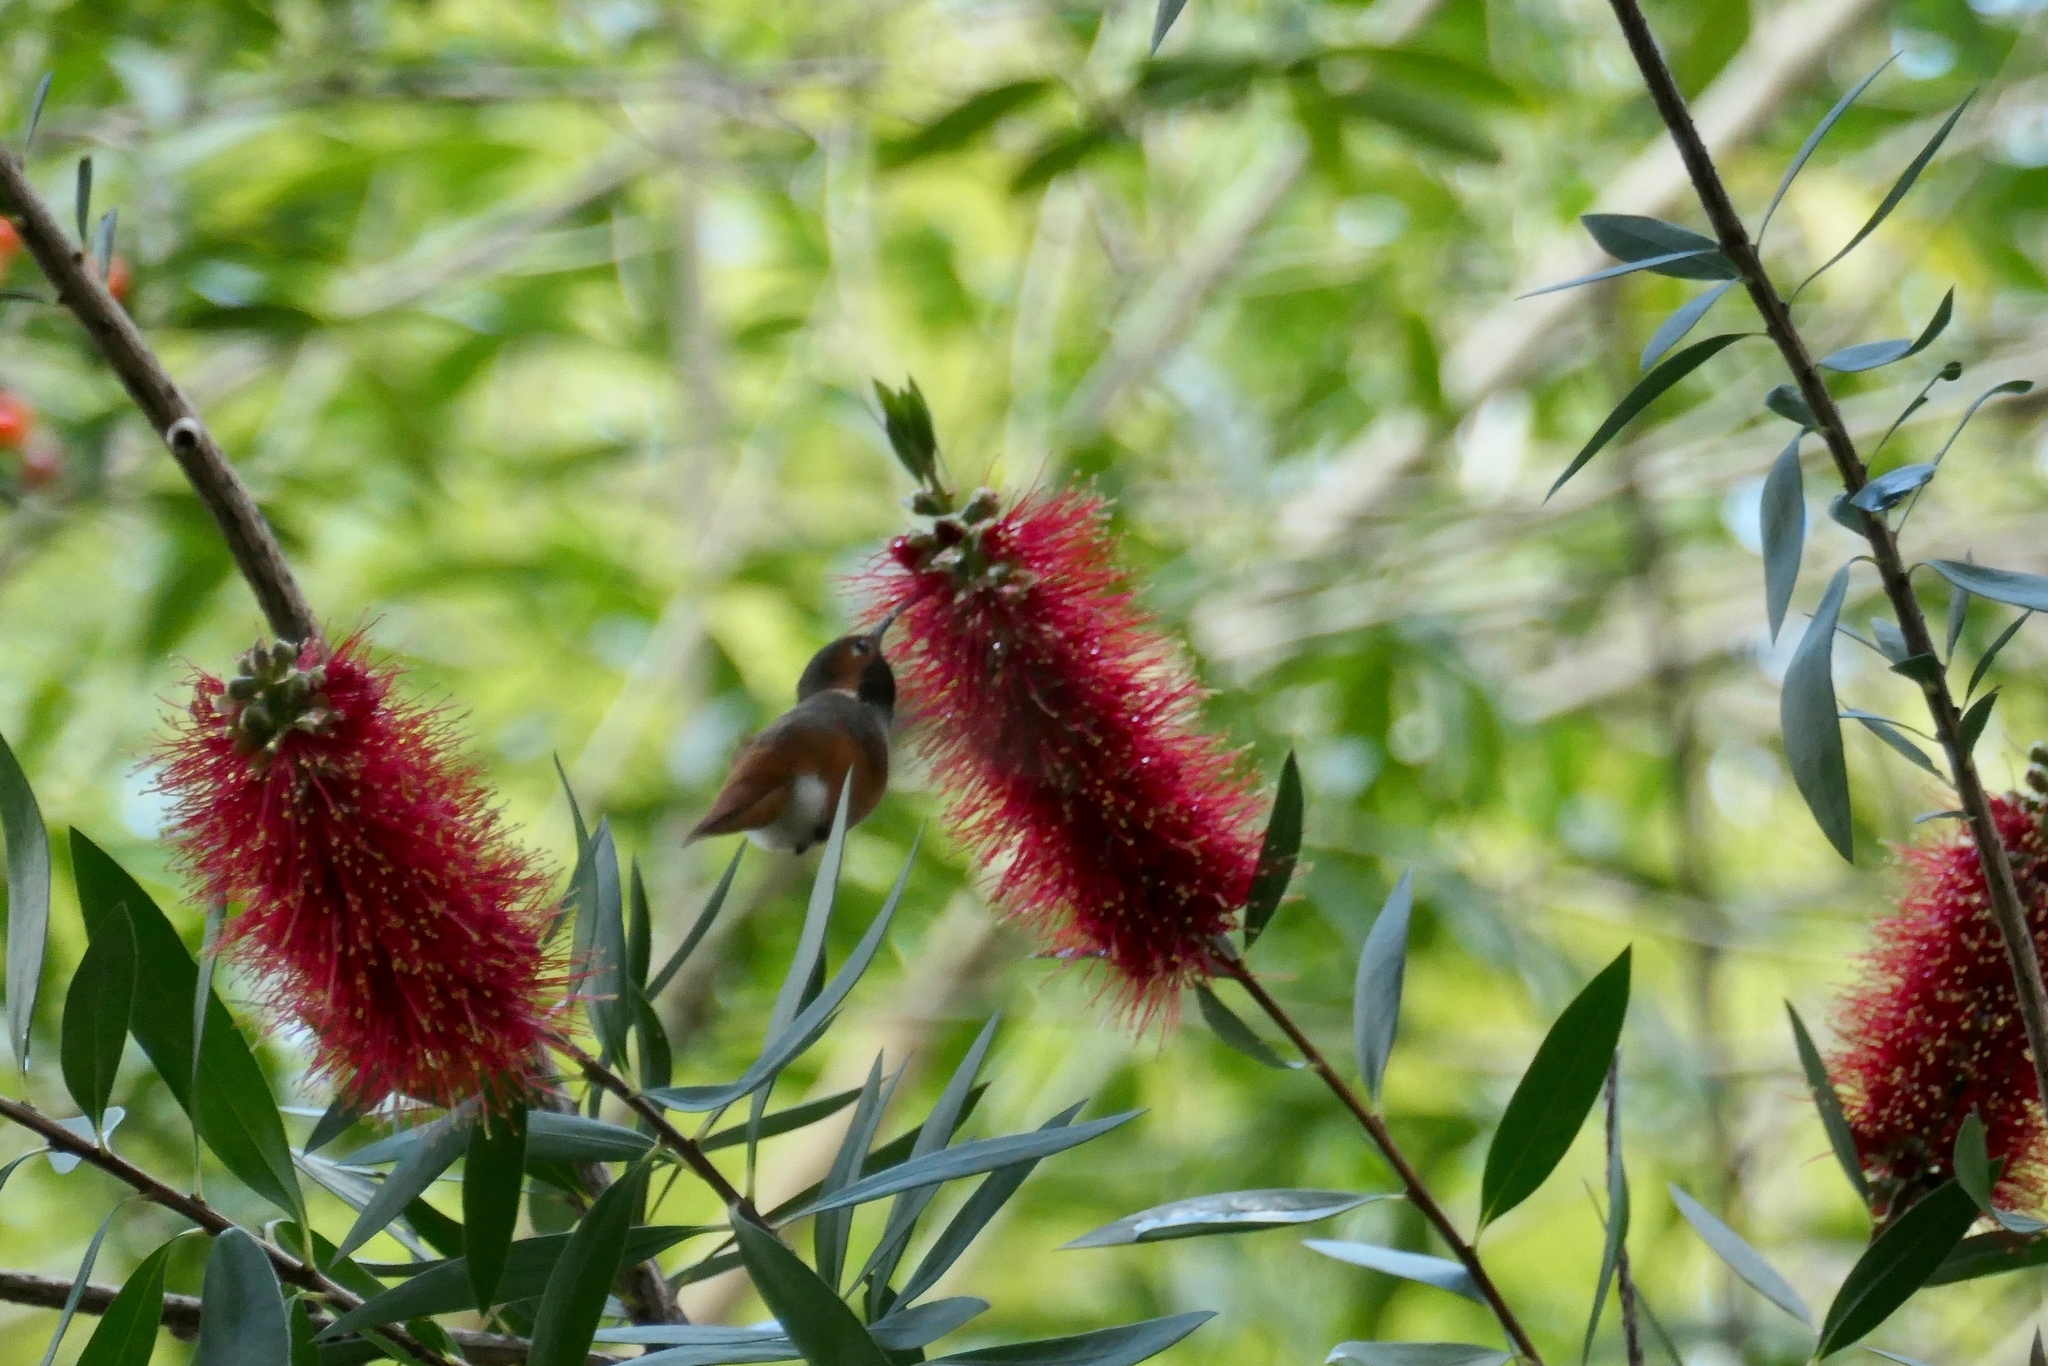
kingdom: Animalia
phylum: Chordata
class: Aves
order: Apodiformes
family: Trochilidae
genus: Selasphorus
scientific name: Selasphorus sasin
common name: Allen's hummingbird
